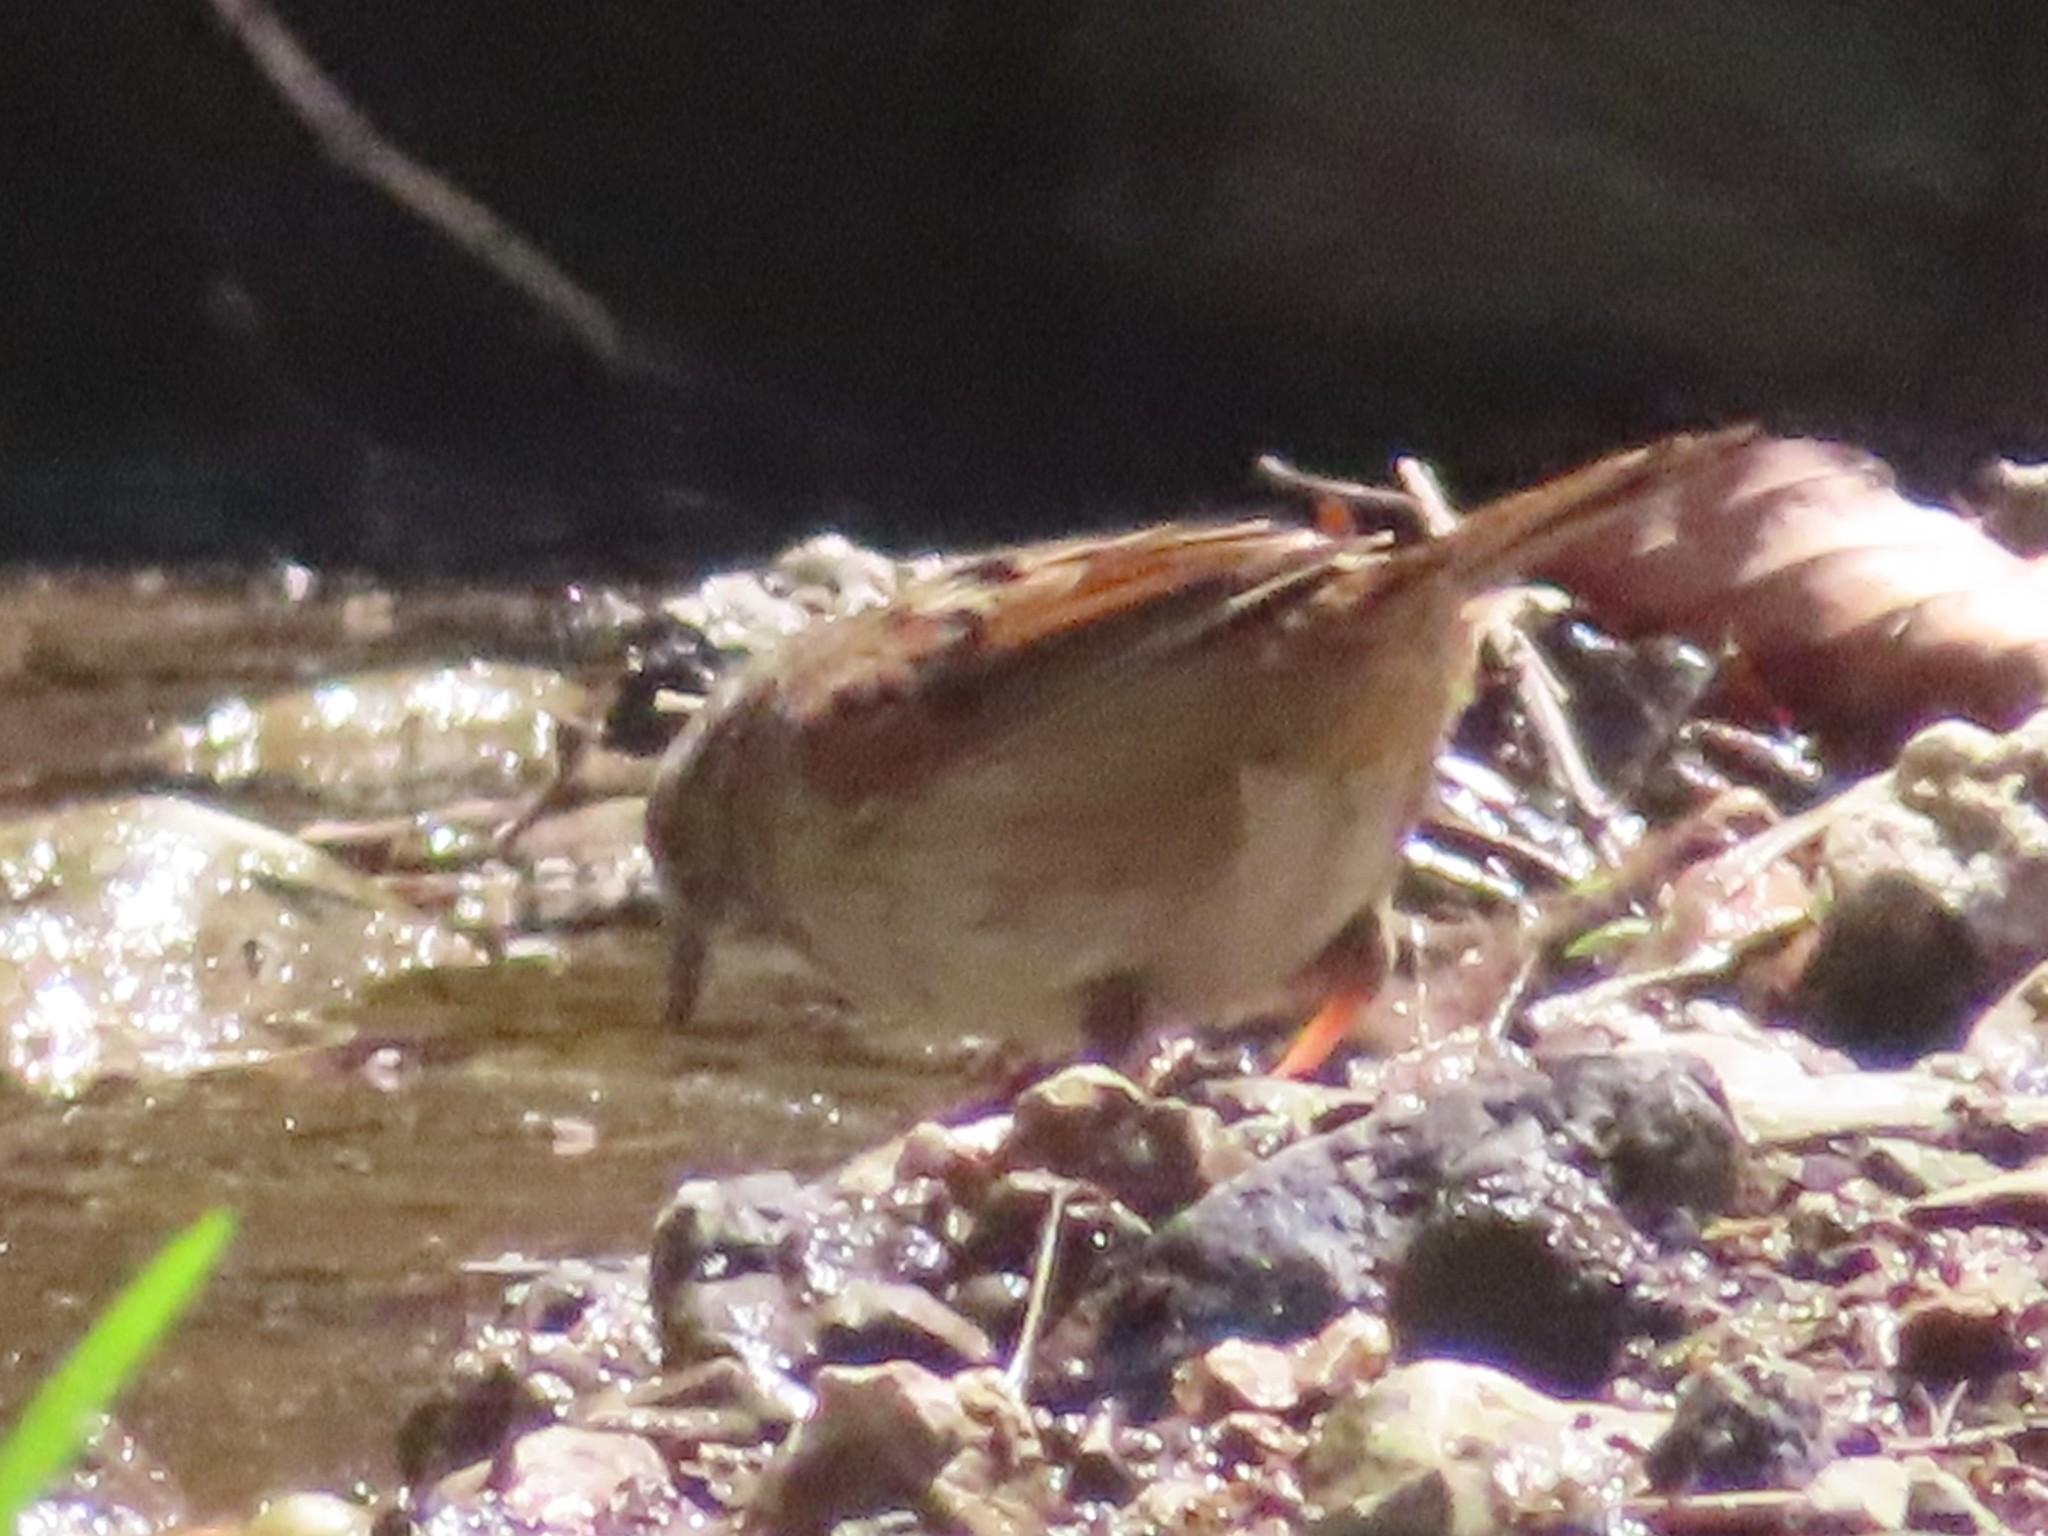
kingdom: Animalia
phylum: Chordata
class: Aves
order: Passeriformes
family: Passerellidae
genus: Melospiza
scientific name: Melospiza georgiana
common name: Swamp sparrow
